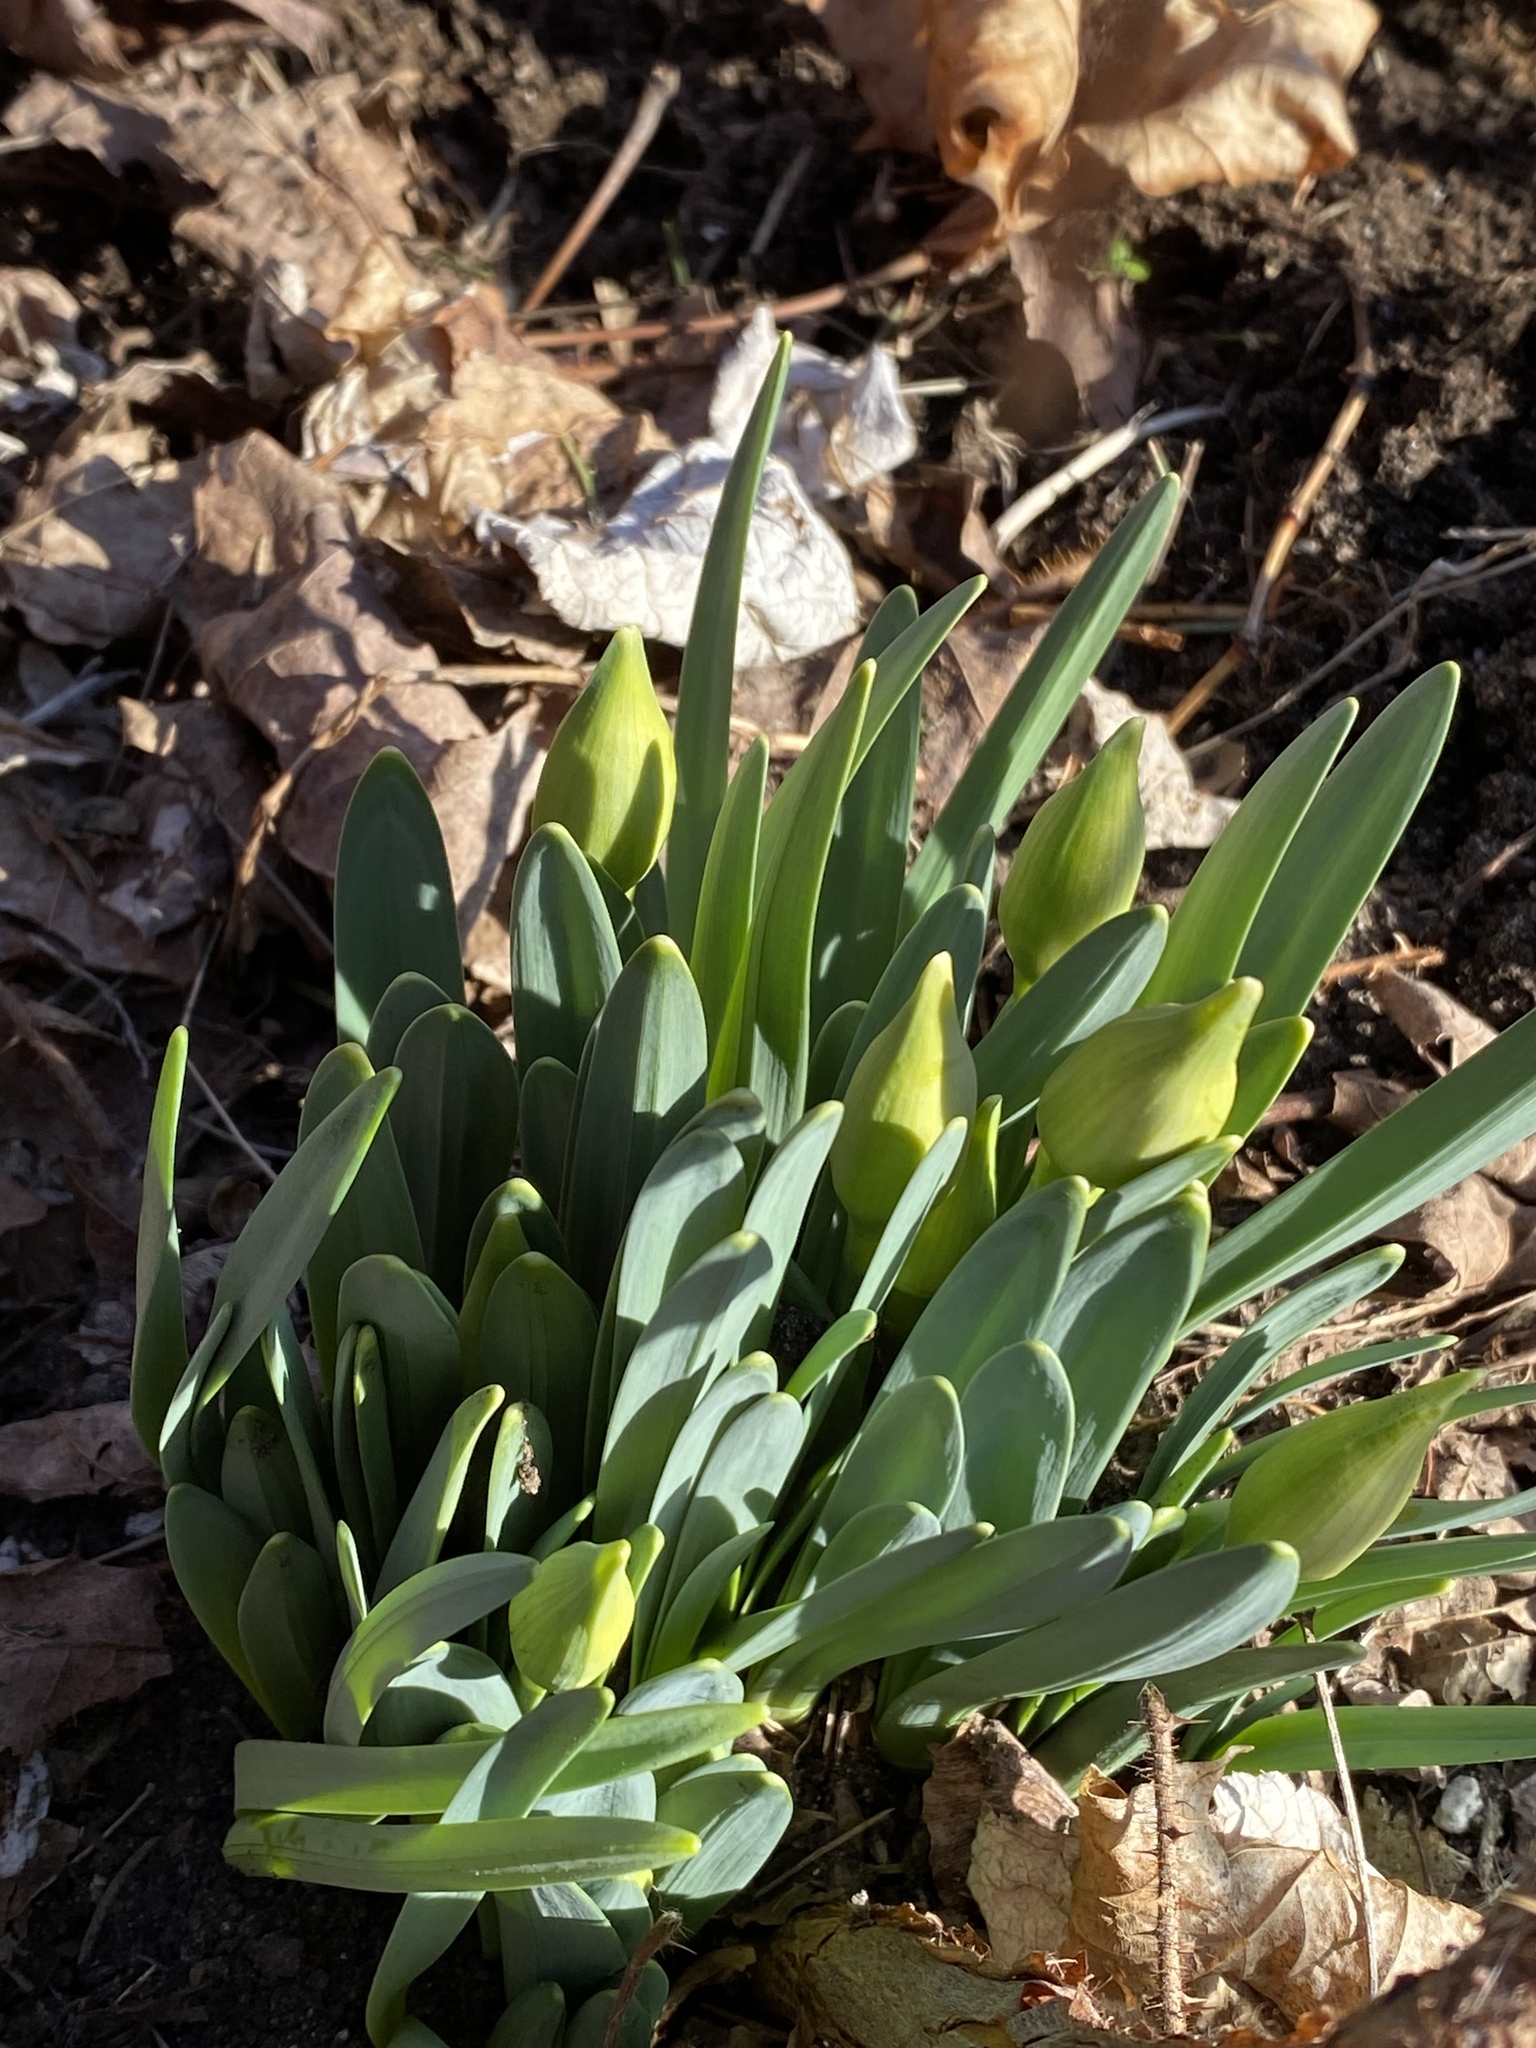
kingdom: Plantae
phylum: Tracheophyta
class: Liliopsida
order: Asparagales
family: Amaryllidaceae
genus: Narcissus
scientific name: Narcissus
